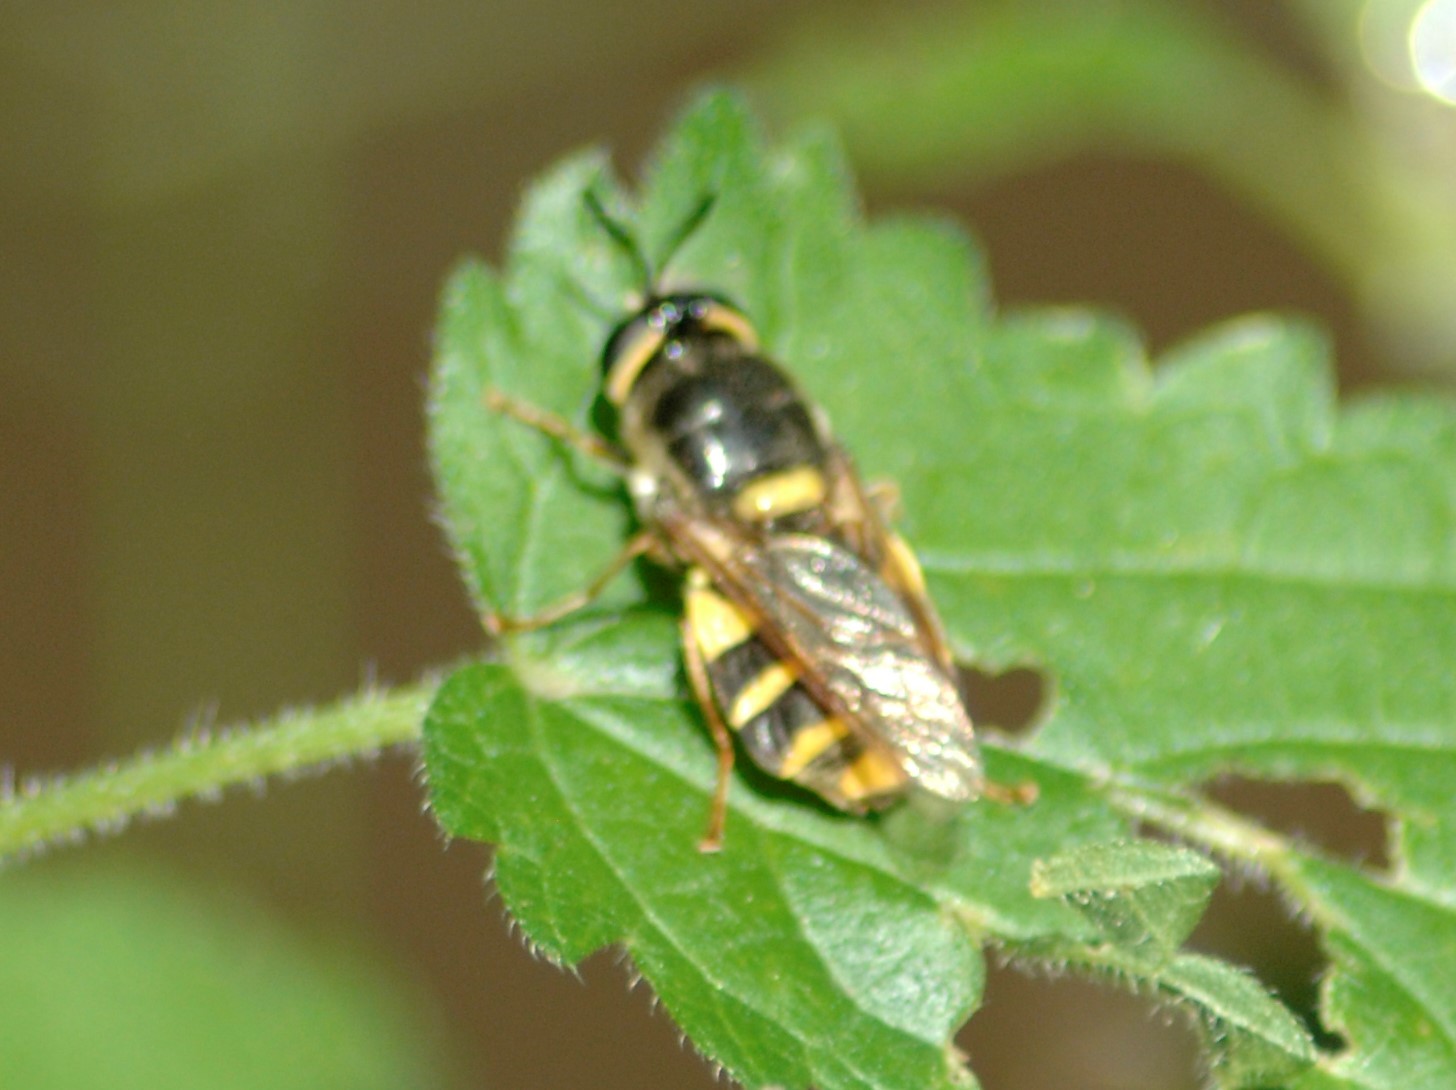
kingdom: Animalia
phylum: Arthropoda
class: Insecta
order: Diptera
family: Stratiomyidae
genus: Stratiomys
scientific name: Stratiomys potamida
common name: Banded general
